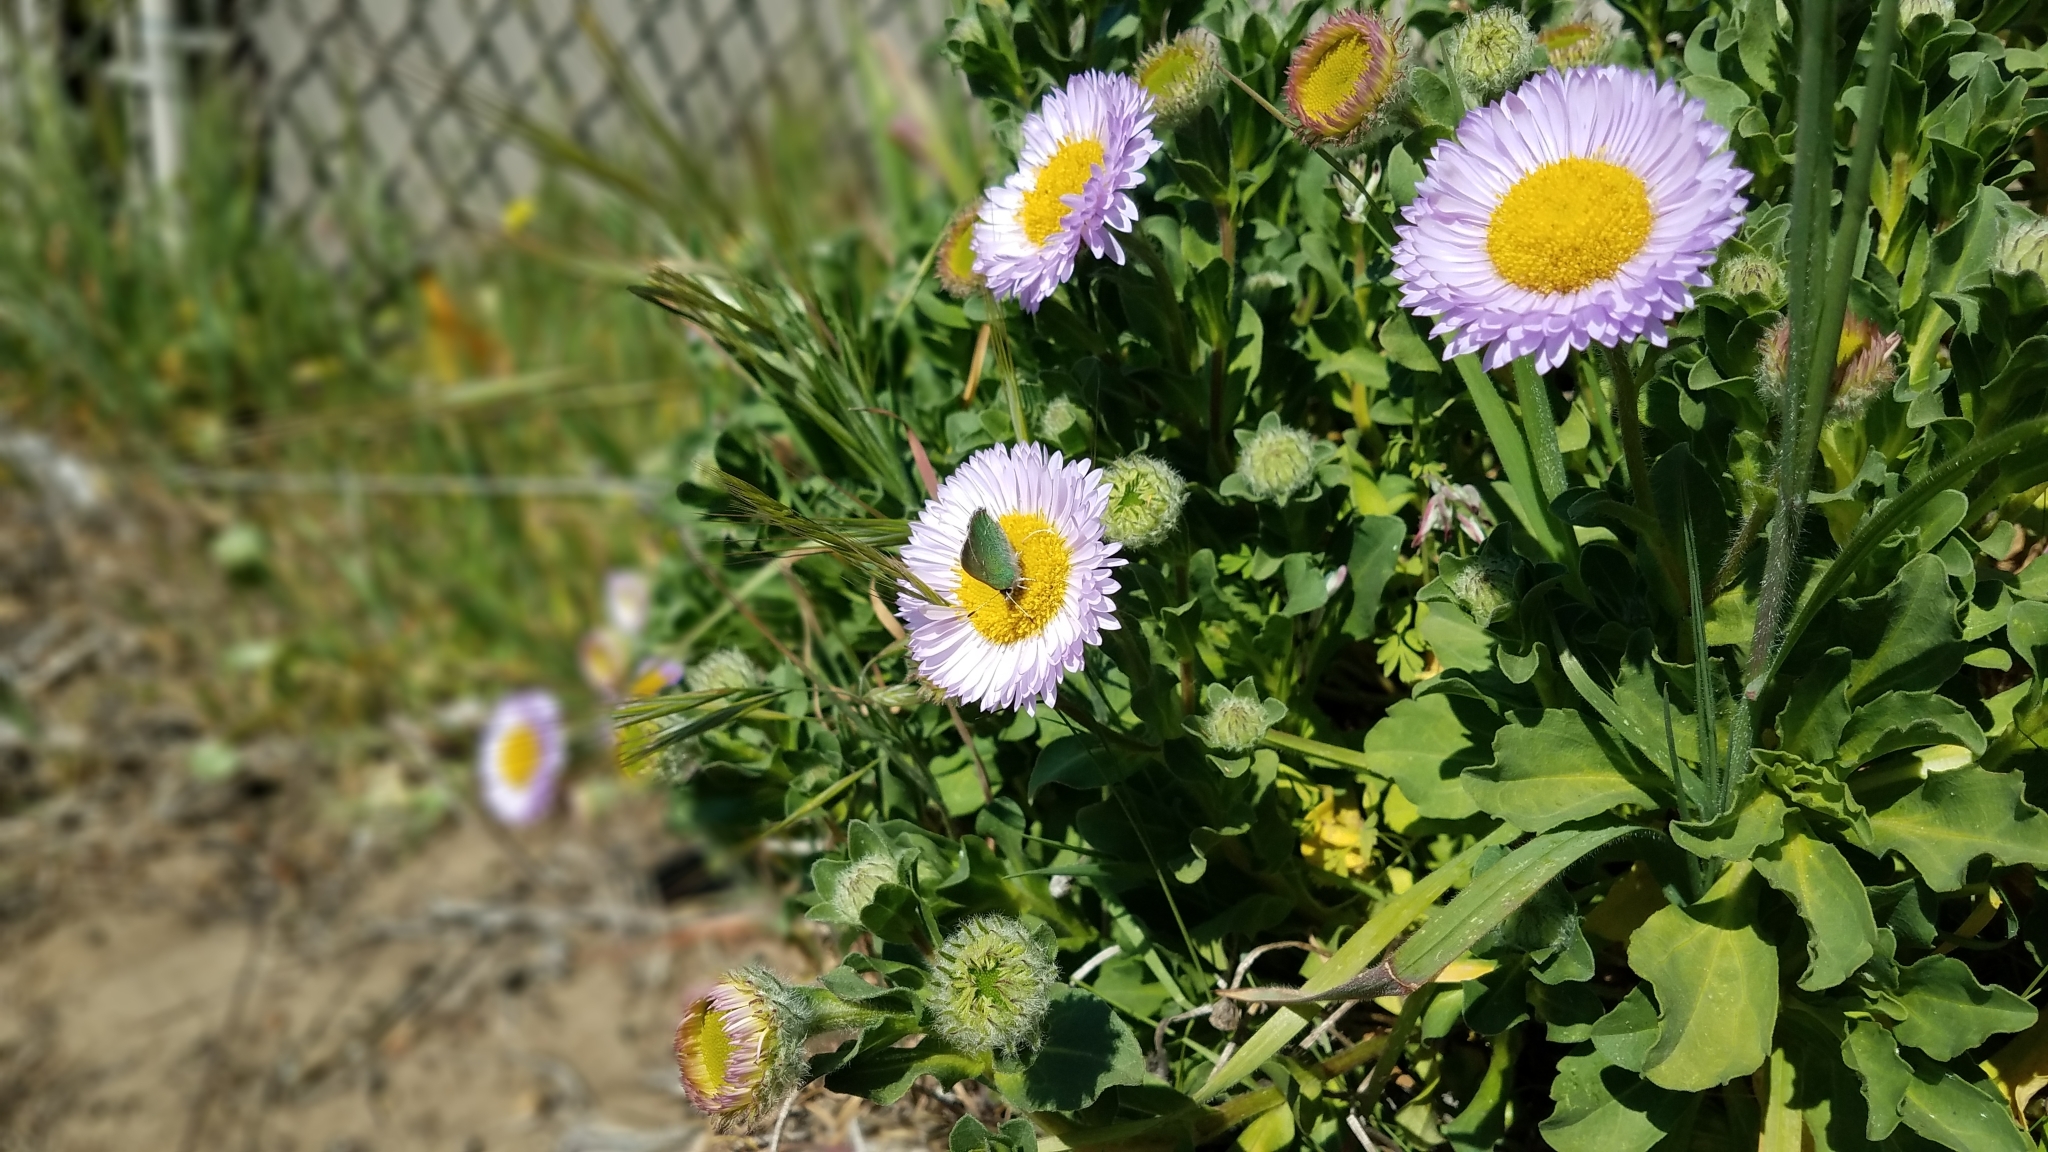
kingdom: Animalia
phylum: Arthropoda
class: Insecta
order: Lepidoptera
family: Lycaenidae
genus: Callophrys
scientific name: Callophrys viridis
